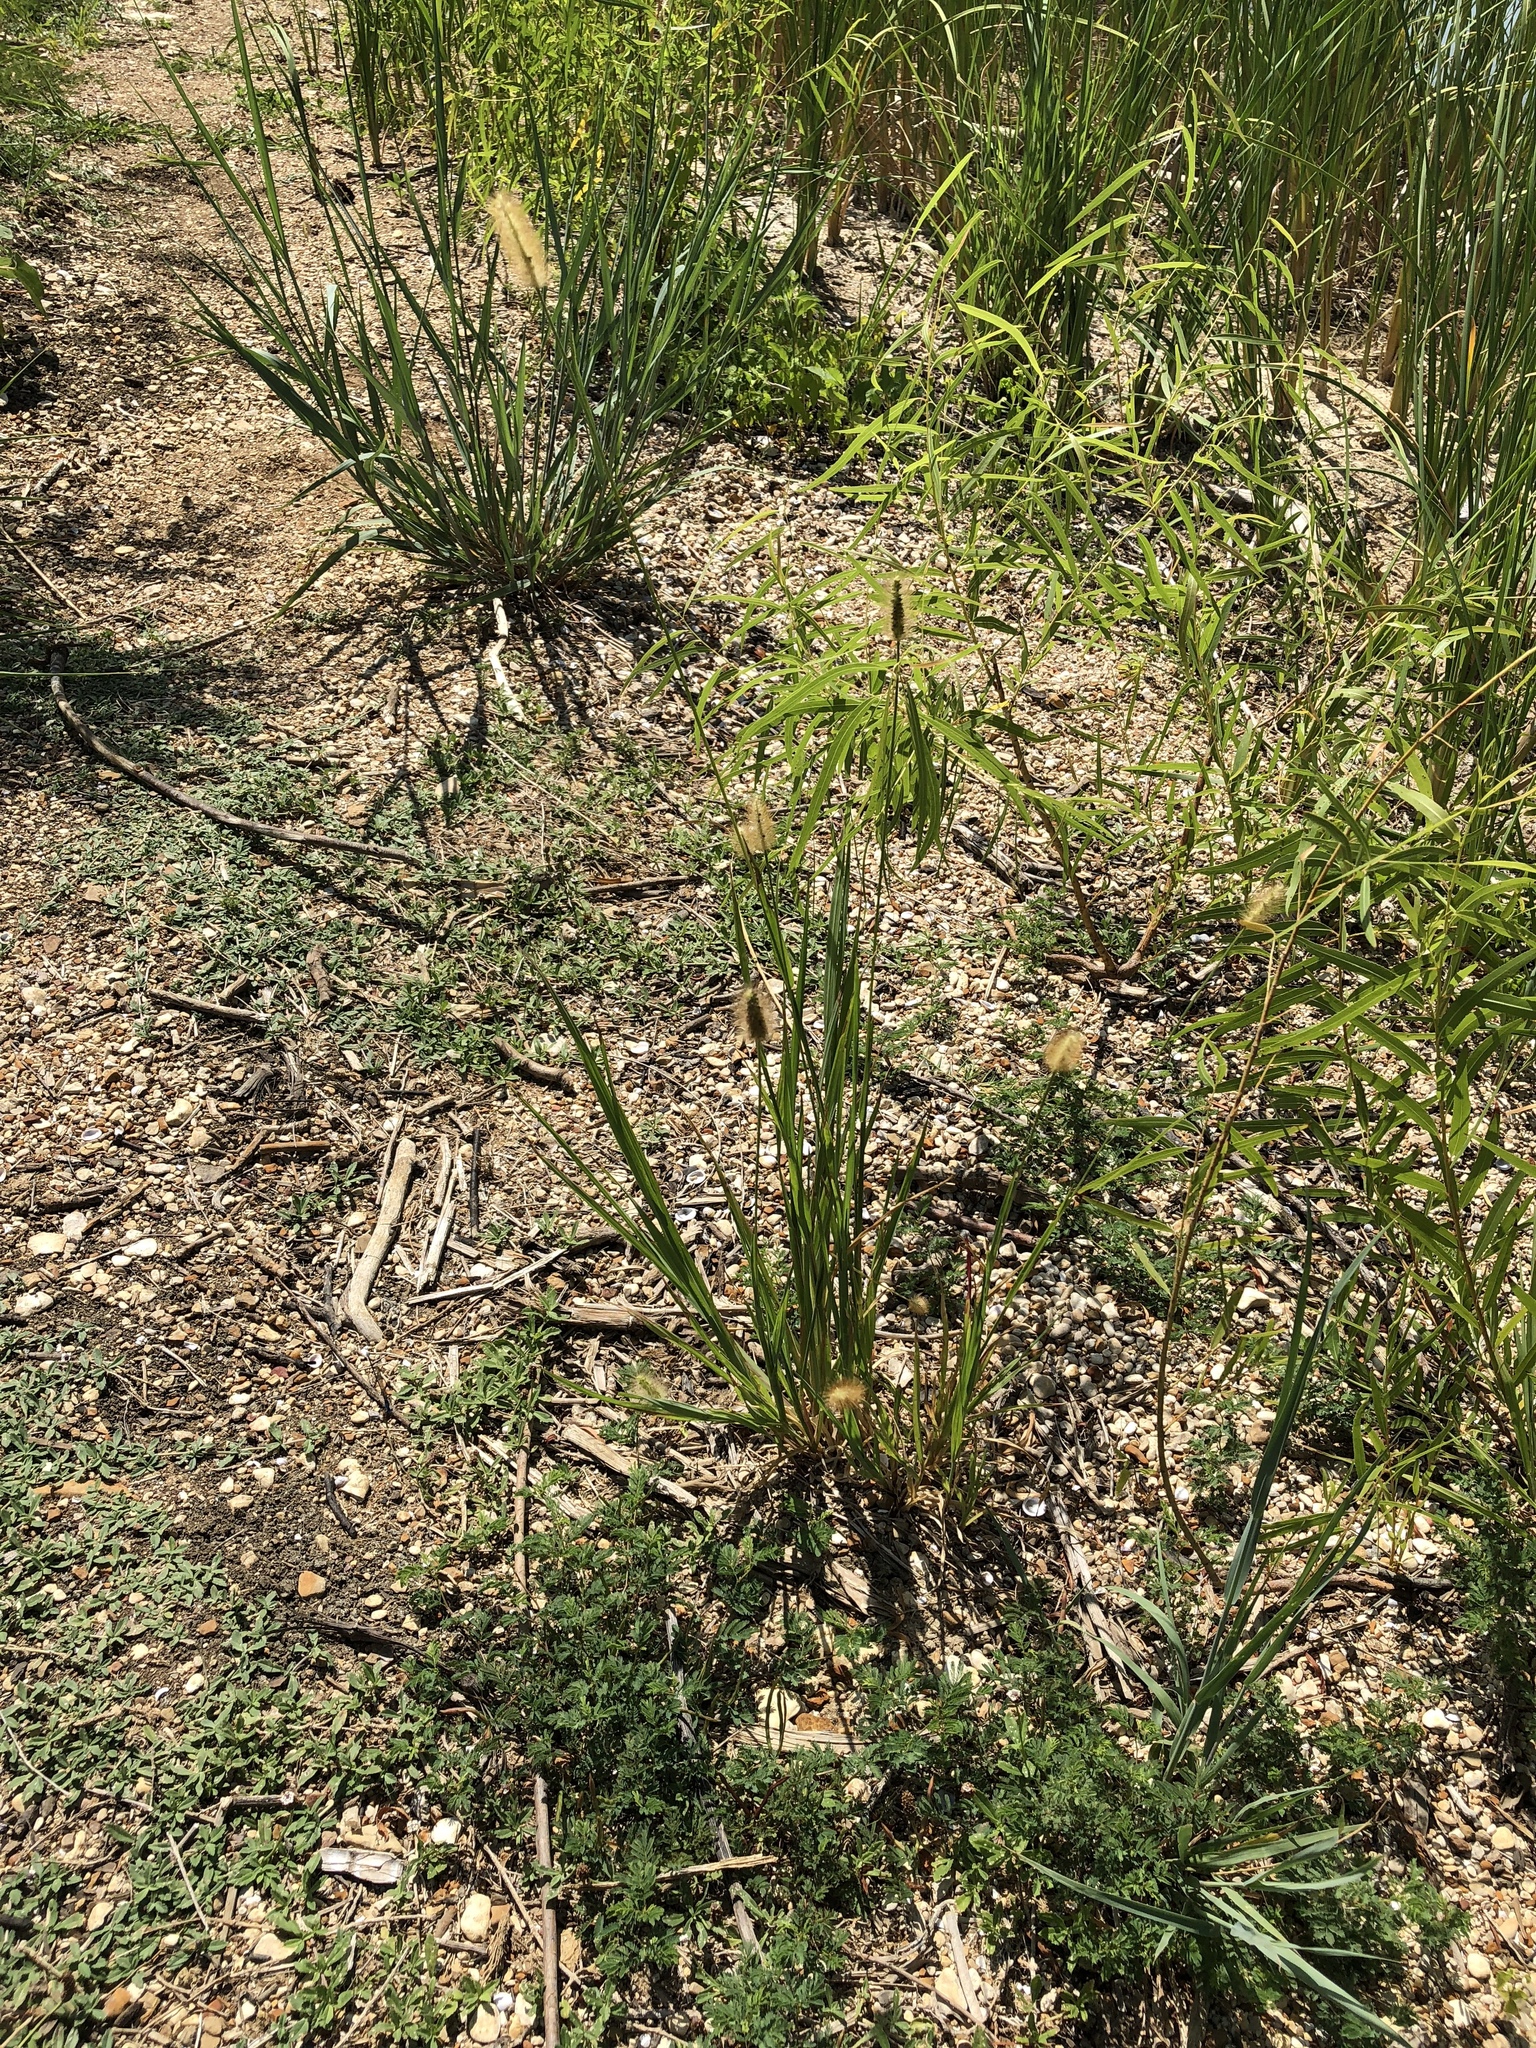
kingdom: Plantae
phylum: Tracheophyta
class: Liliopsida
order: Poales
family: Poaceae
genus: Setaria
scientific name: Setaria parviflora
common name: Knotroot bristle-grass
